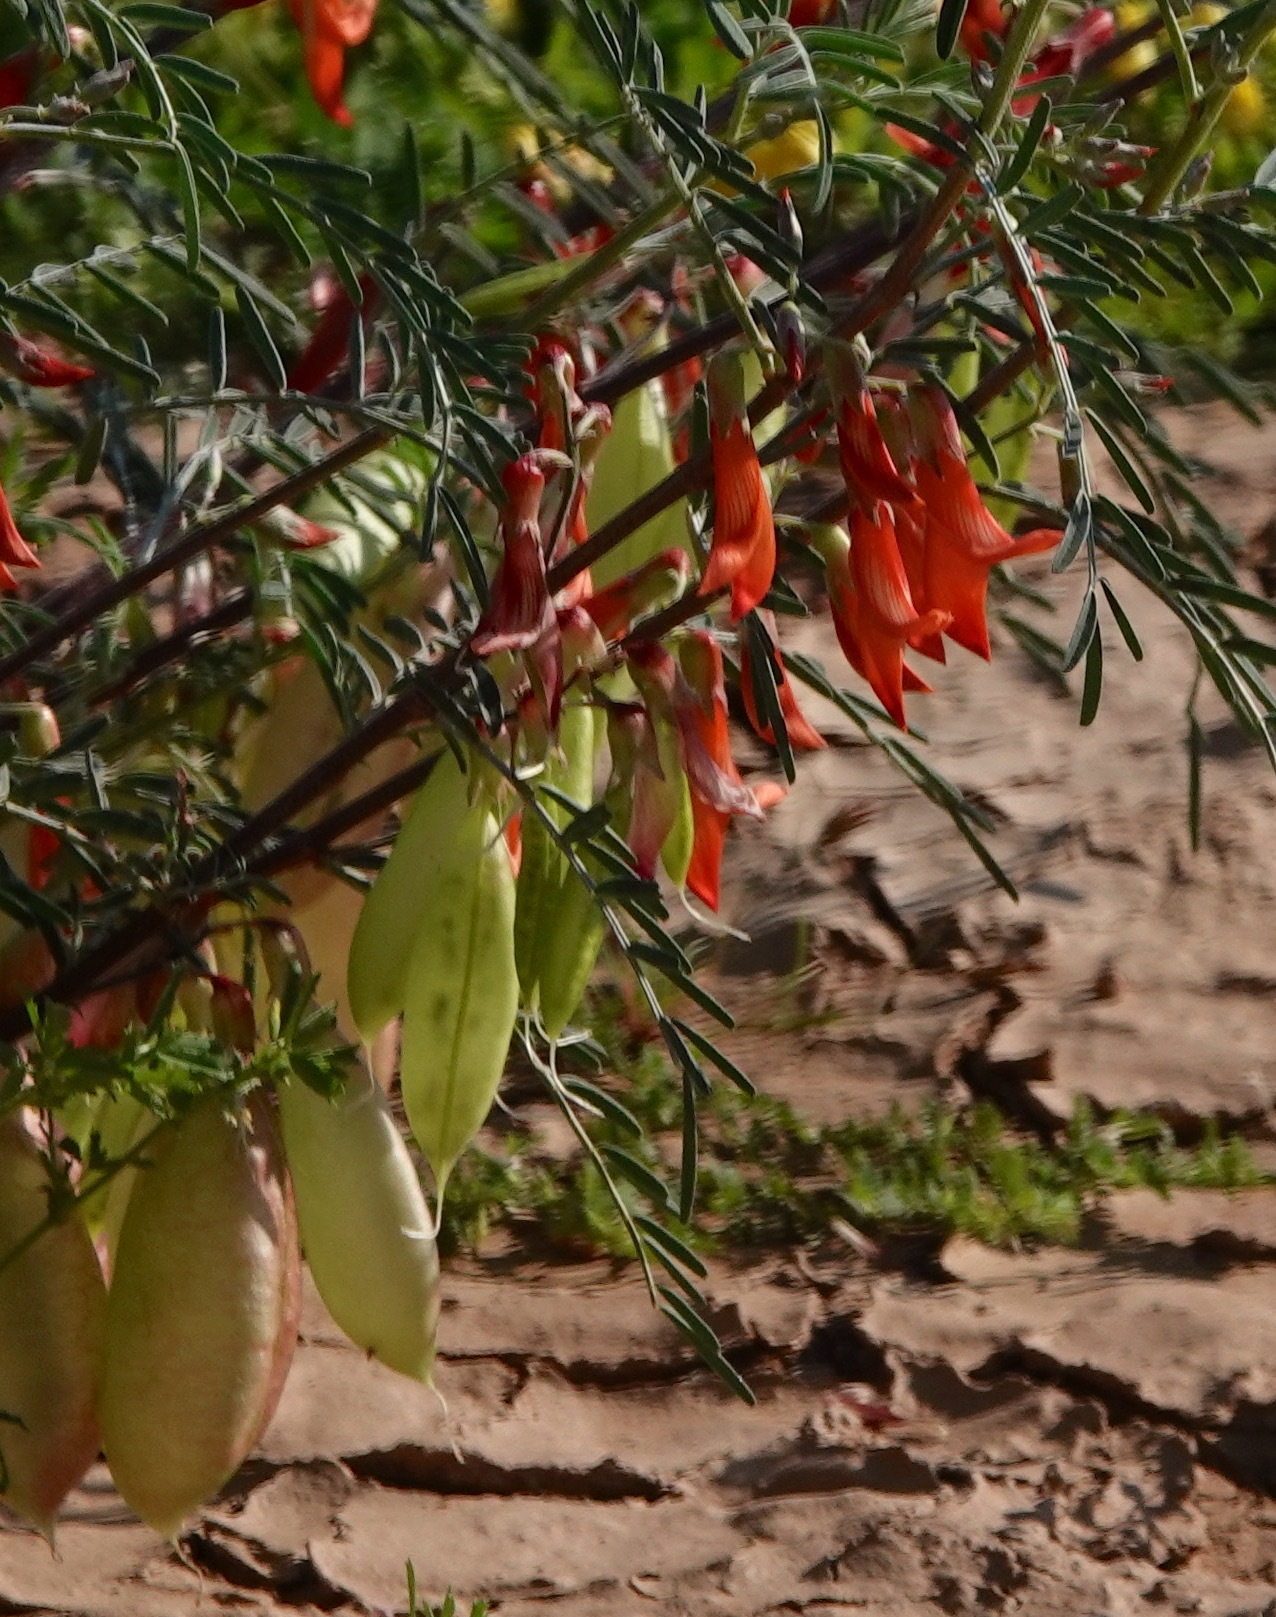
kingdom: Plantae
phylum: Tracheophyta
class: Magnoliopsida
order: Fabales
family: Fabaceae
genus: Lessertia
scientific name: Lessertia frutescens
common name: Balloon-pea
